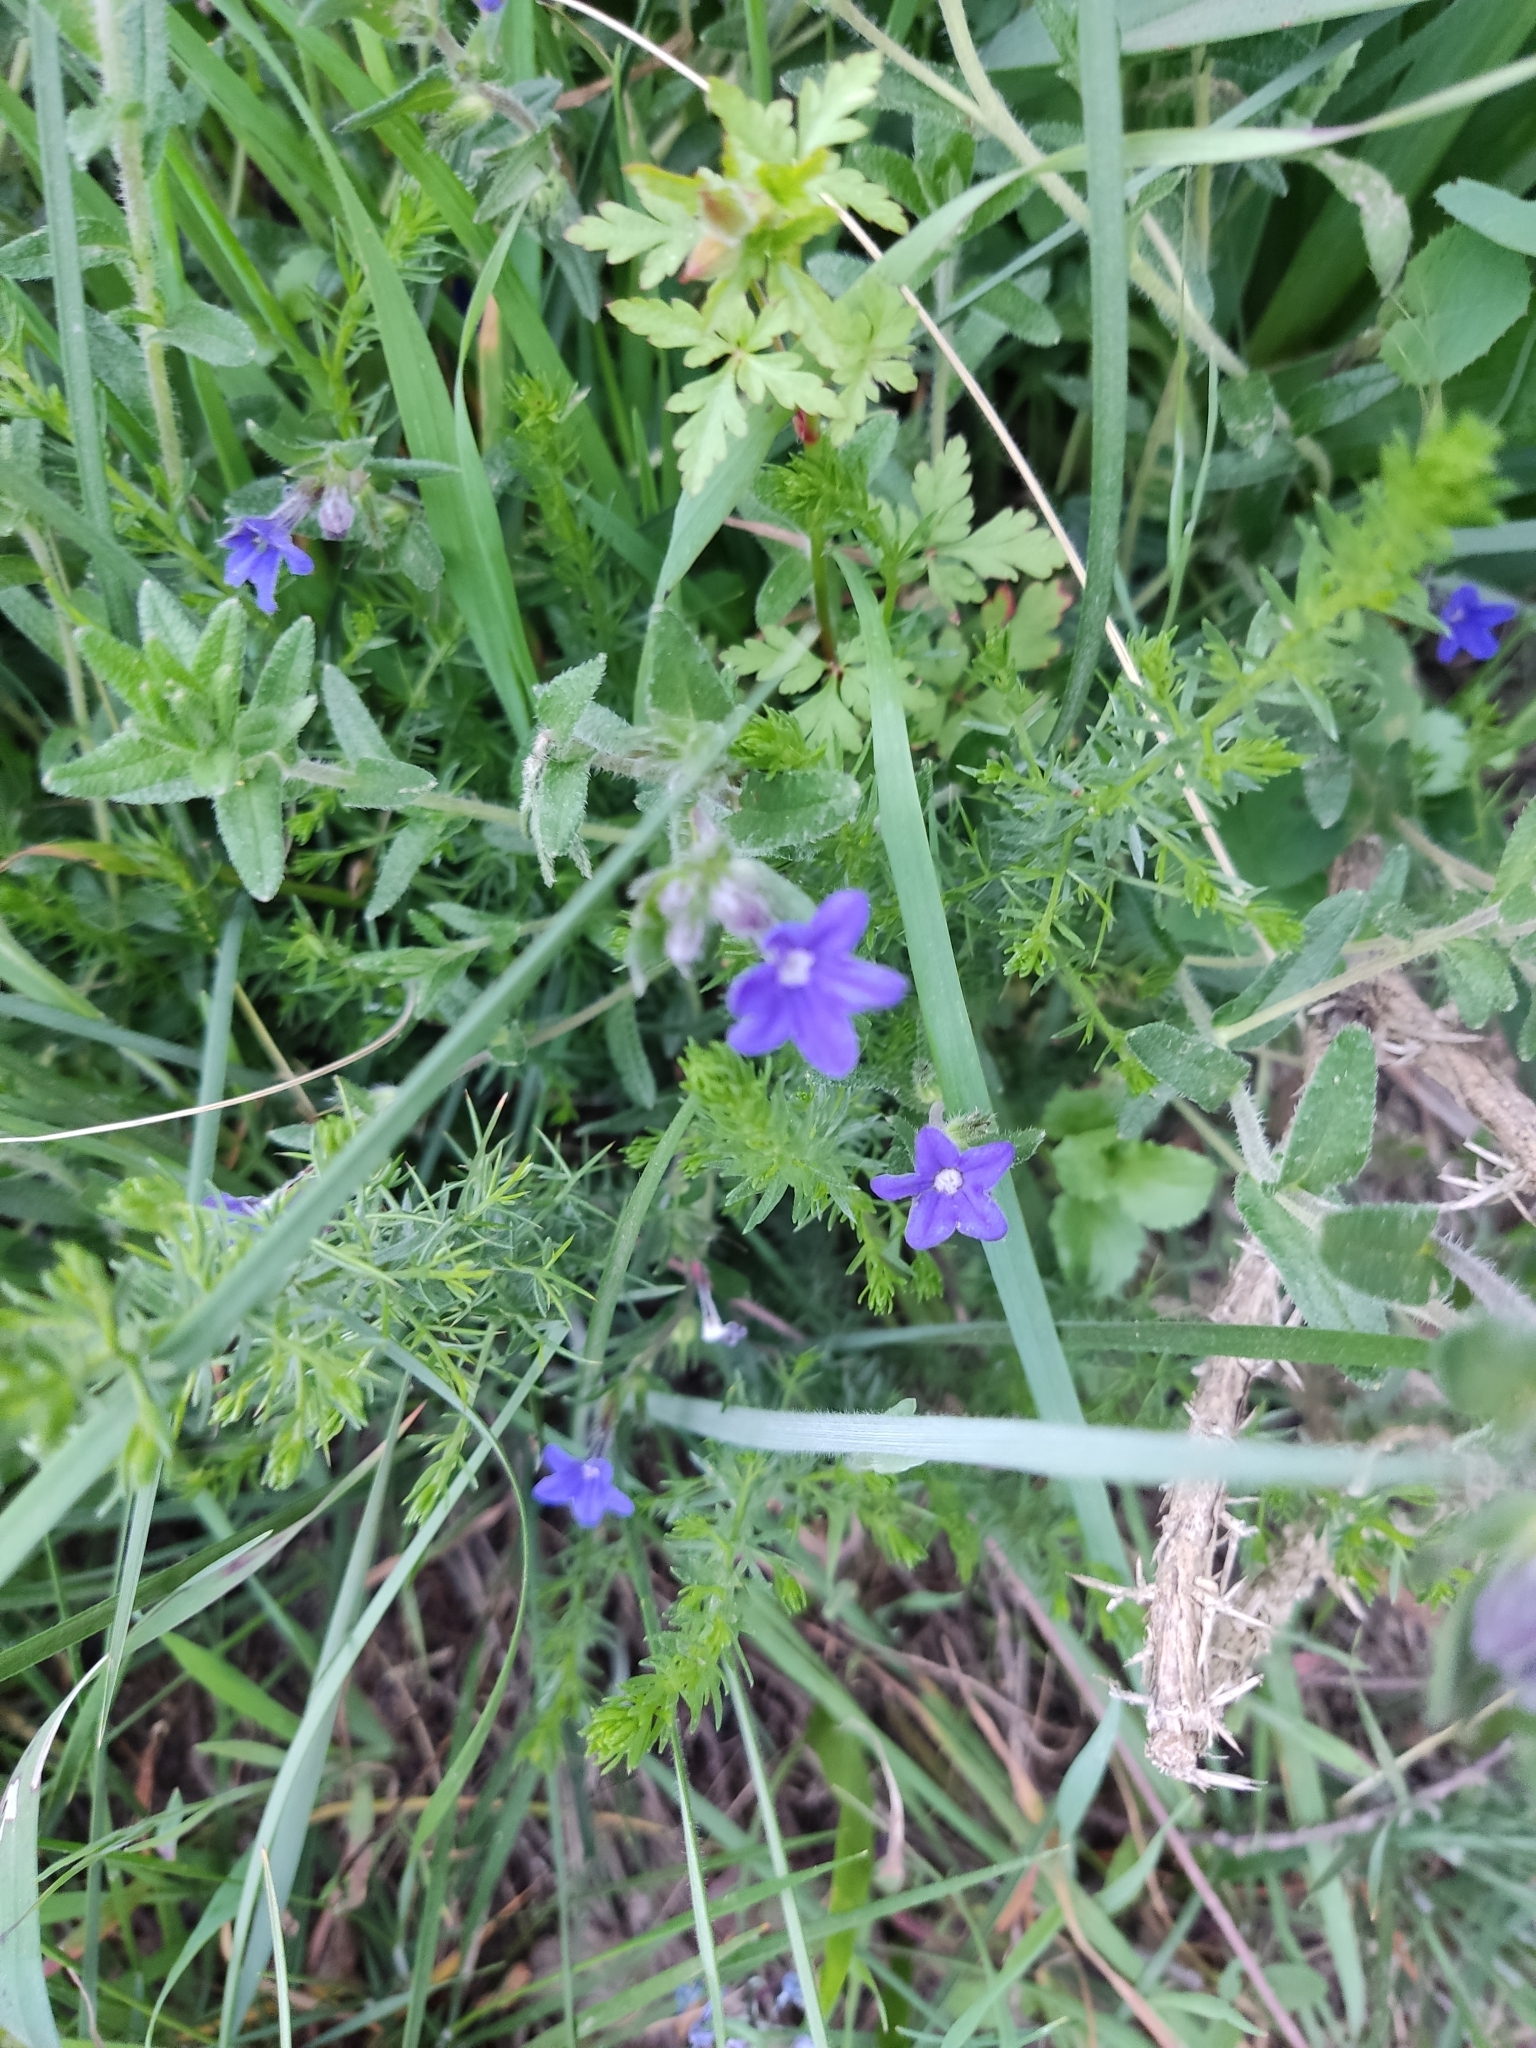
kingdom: Plantae
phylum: Tracheophyta
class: Magnoliopsida
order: Boraginales
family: Boraginaceae
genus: Glandora
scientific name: Glandora prostrata
